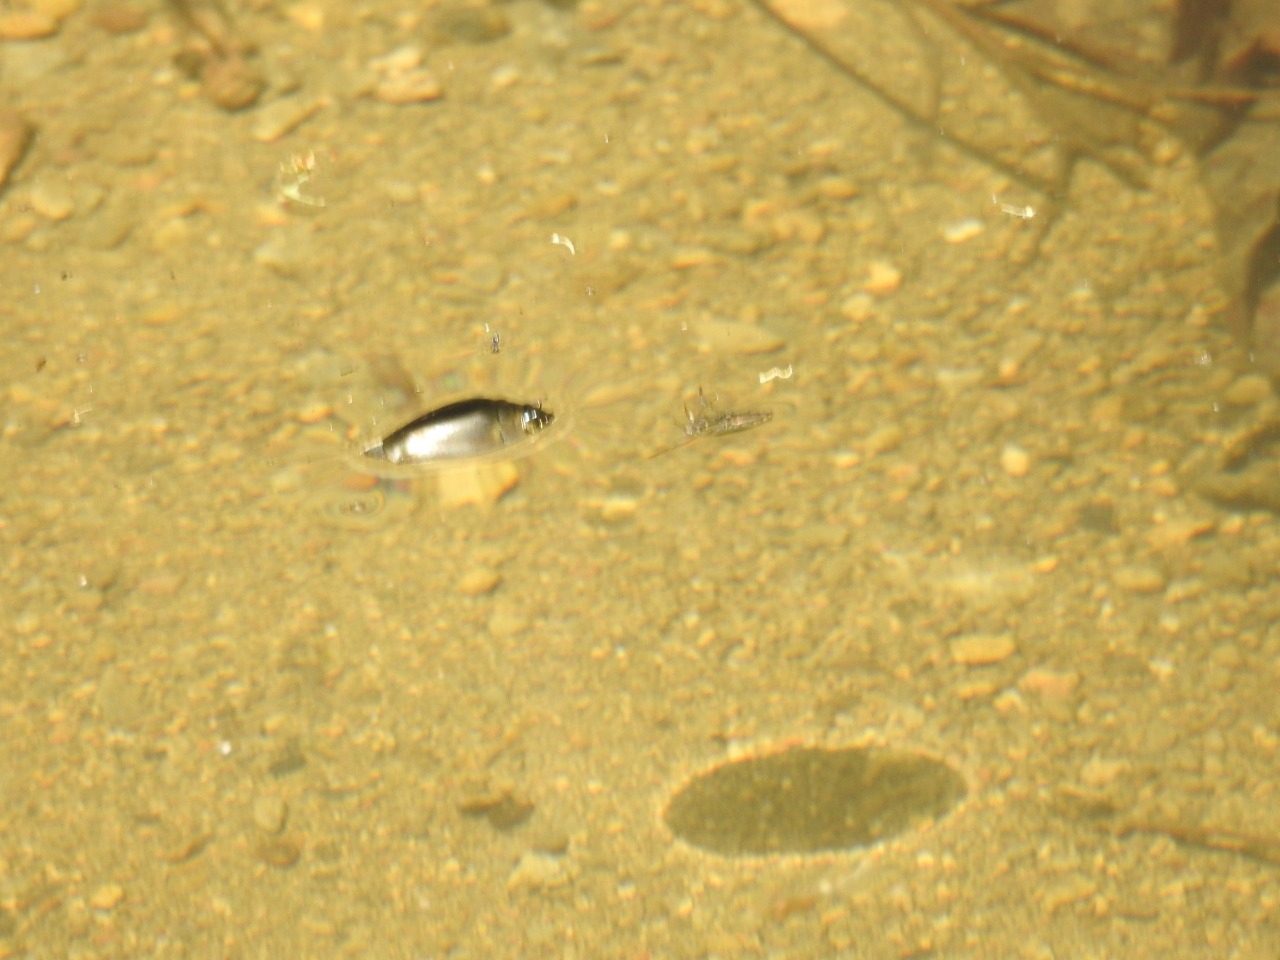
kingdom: Animalia
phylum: Arthropoda
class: Insecta
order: Coleoptera
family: Gyrinidae
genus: Dineutus
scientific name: Dineutus
